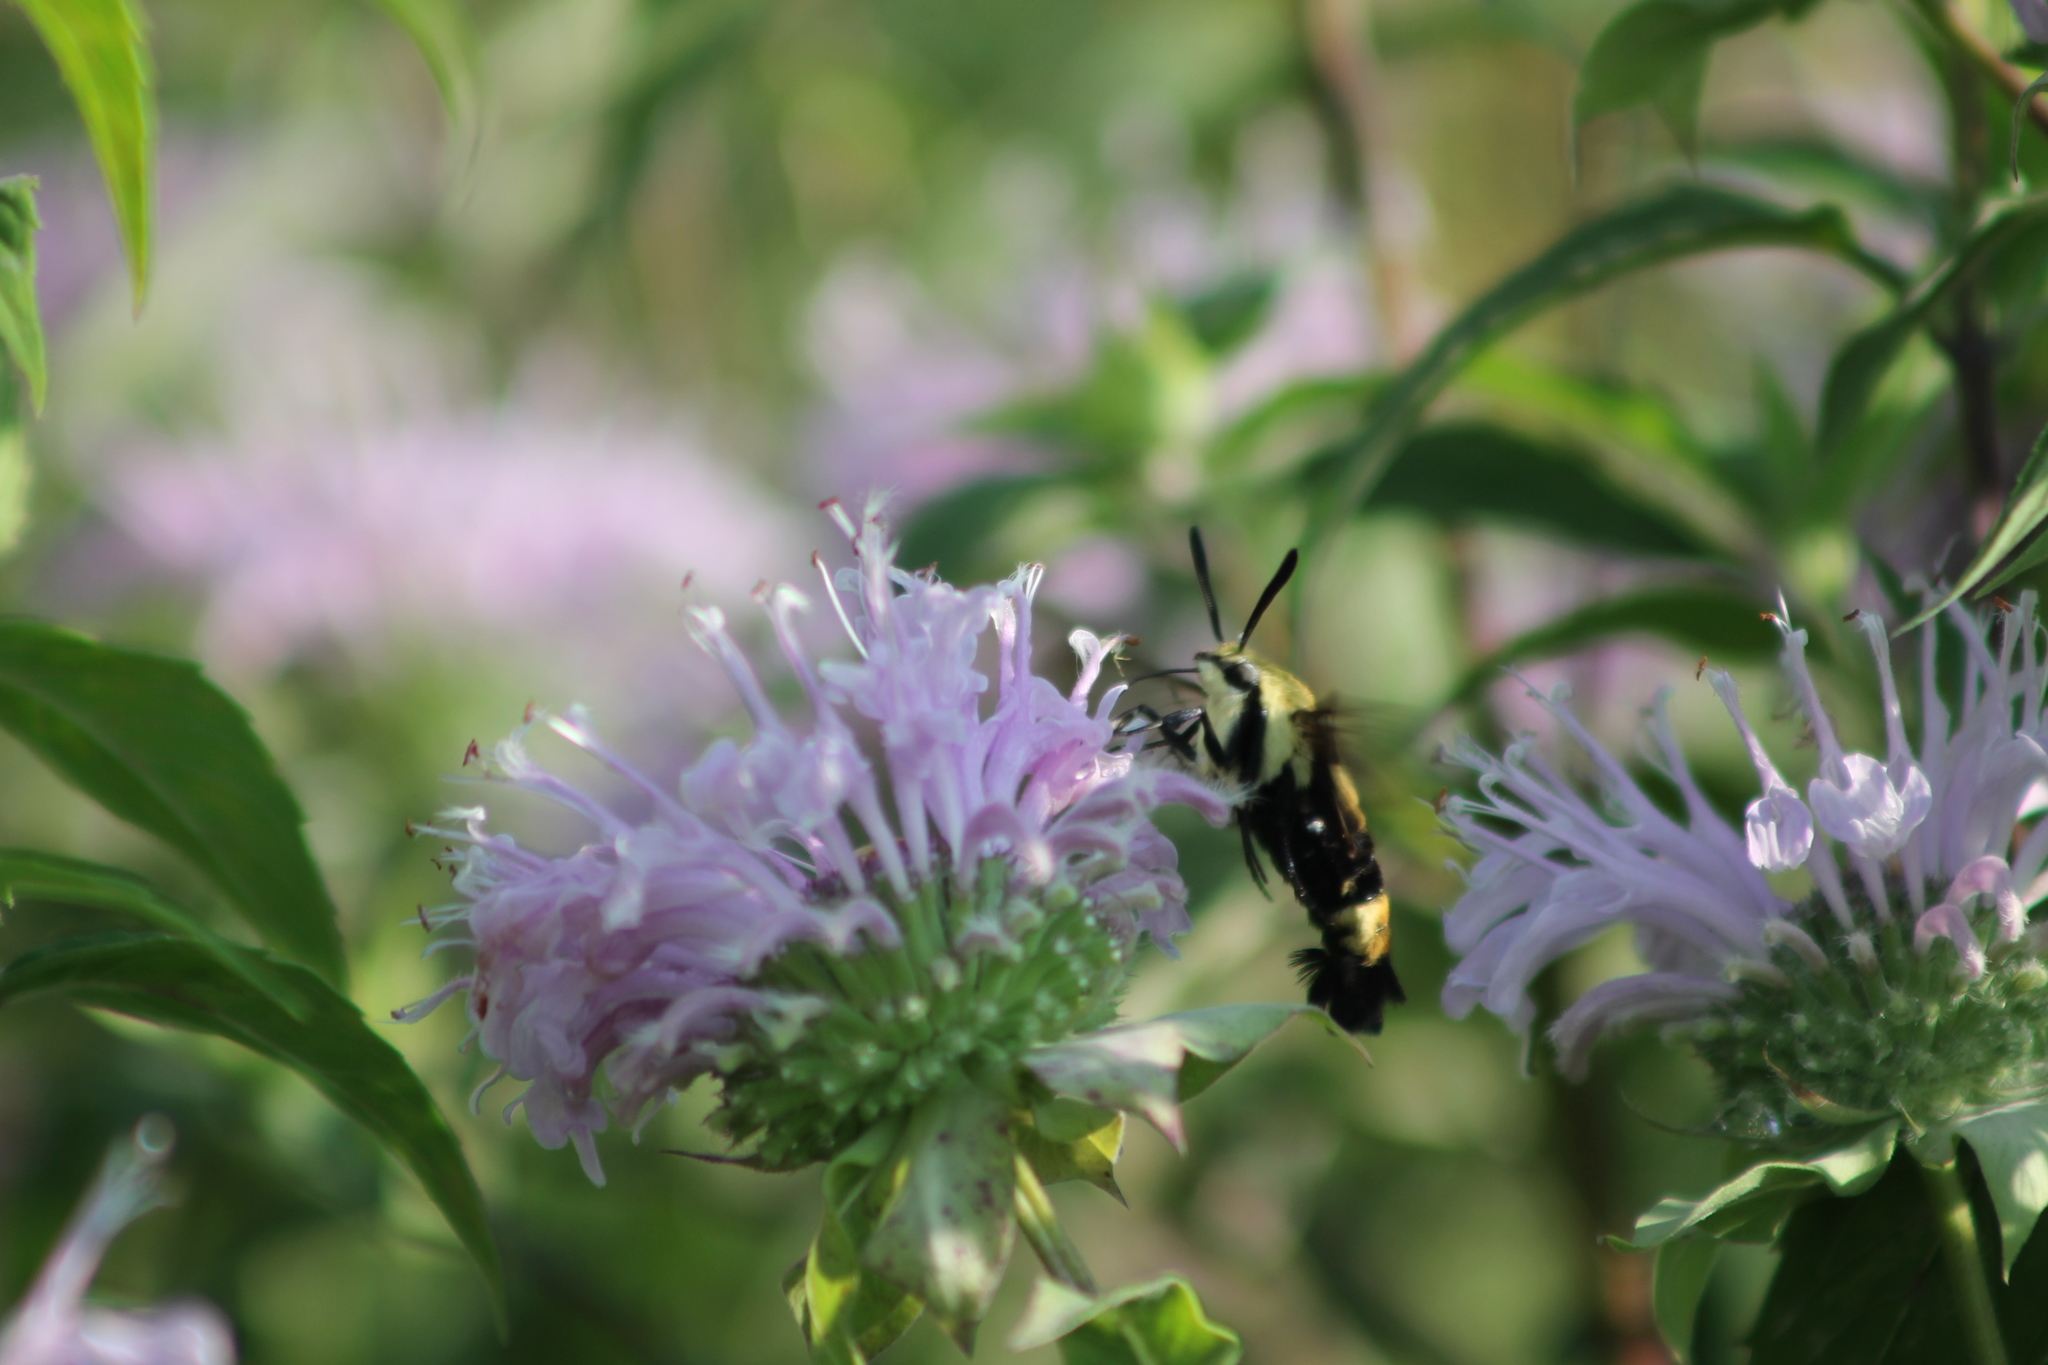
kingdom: Animalia
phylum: Arthropoda
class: Insecta
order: Lepidoptera
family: Sphingidae
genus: Hemaris
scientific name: Hemaris diffinis
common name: Bumblebee moth
